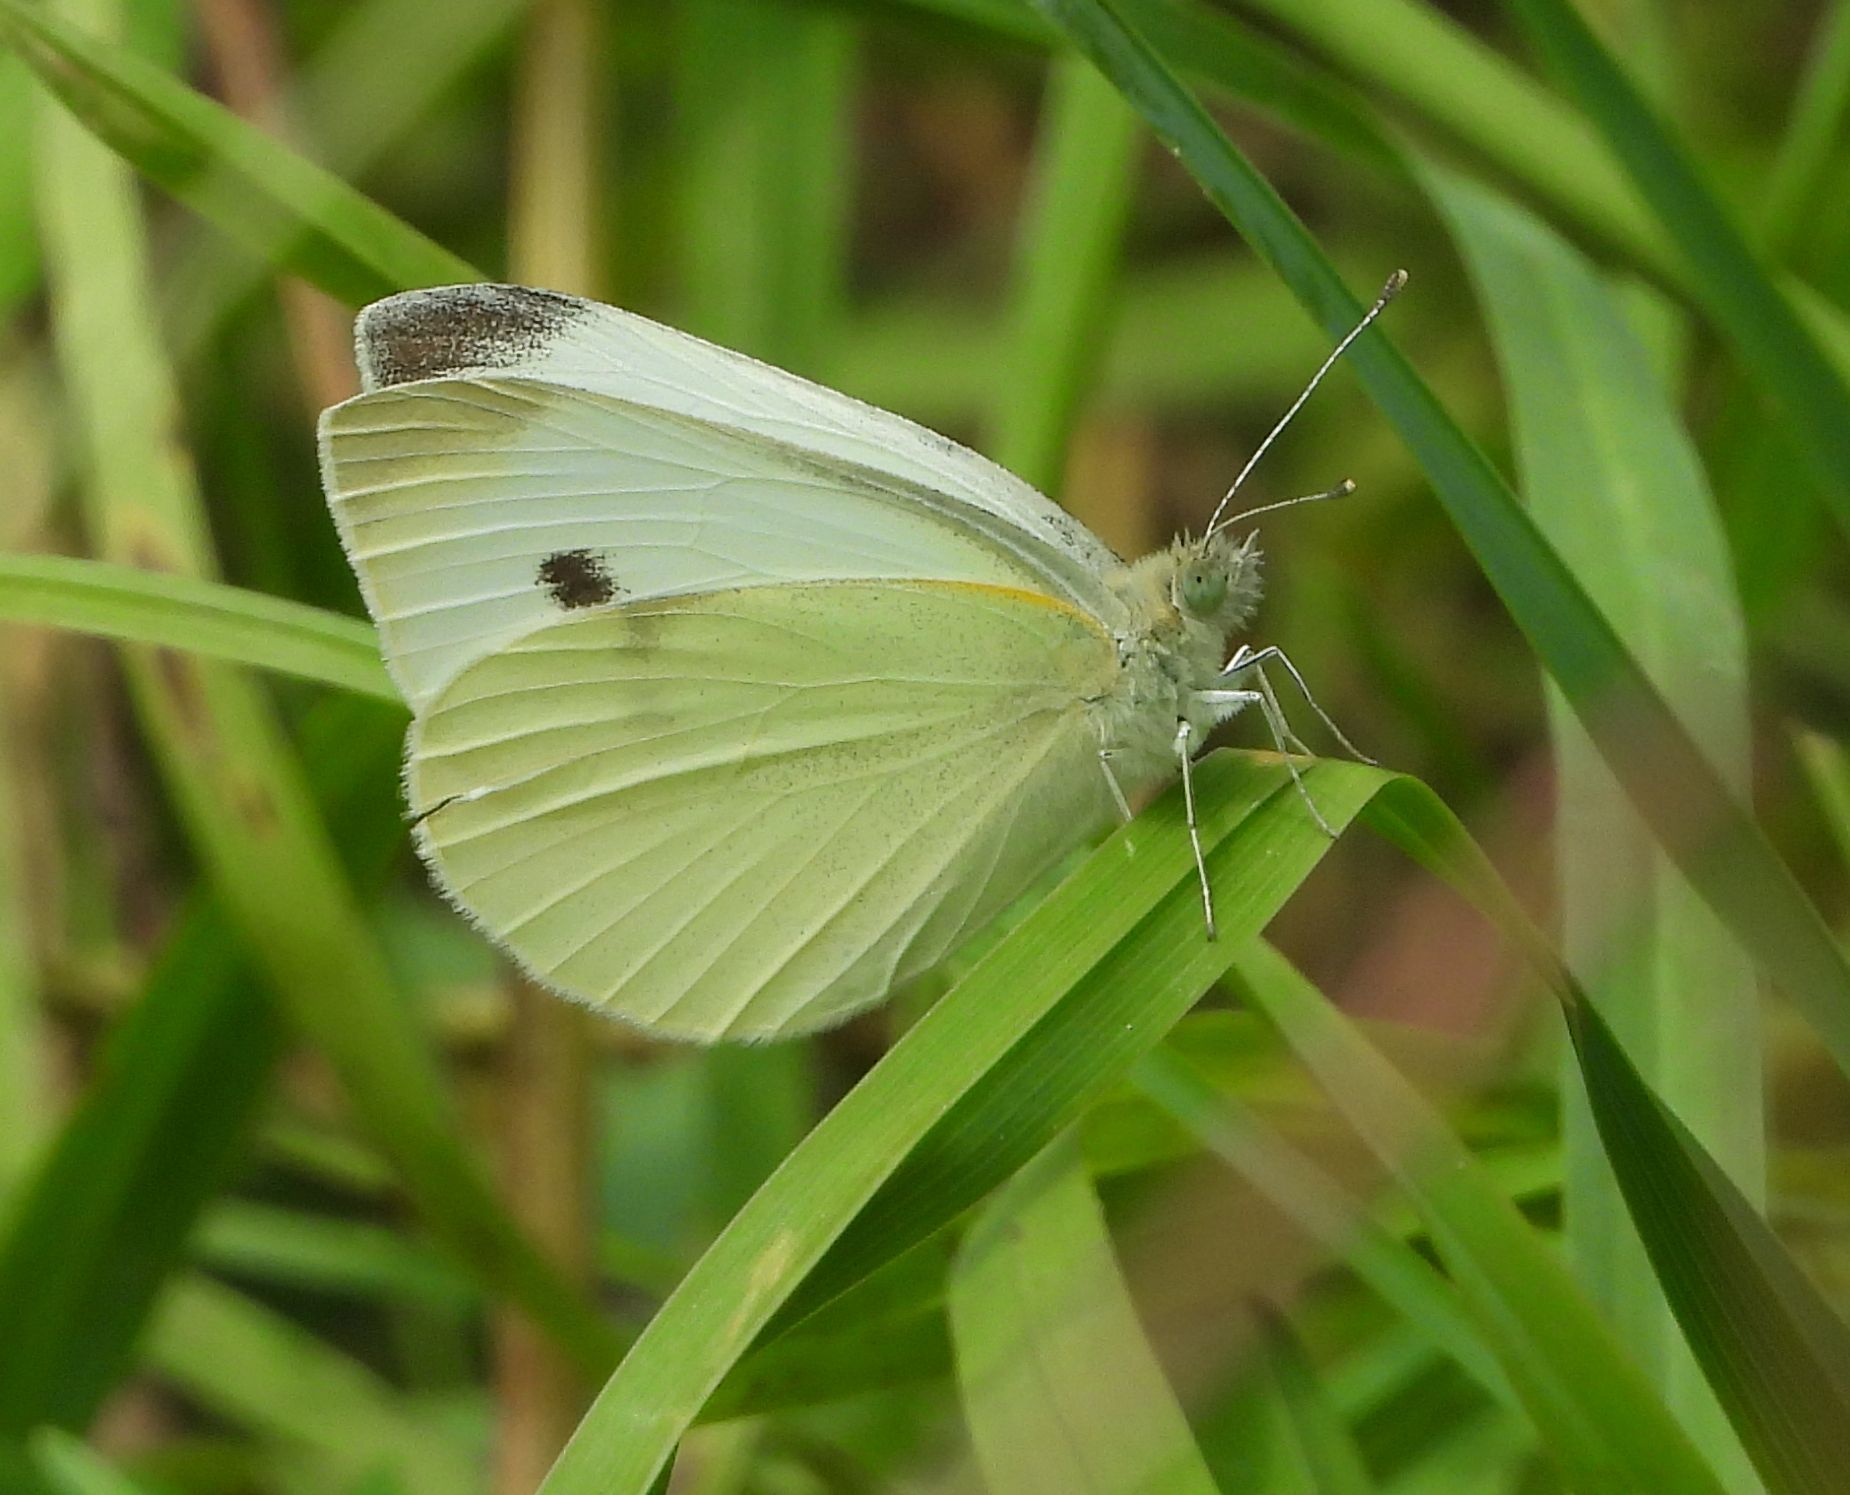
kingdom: Animalia
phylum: Arthropoda
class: Insecta
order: Lepidoptera
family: Pieridae
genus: Pieris
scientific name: Pieris rapae
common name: Small white
